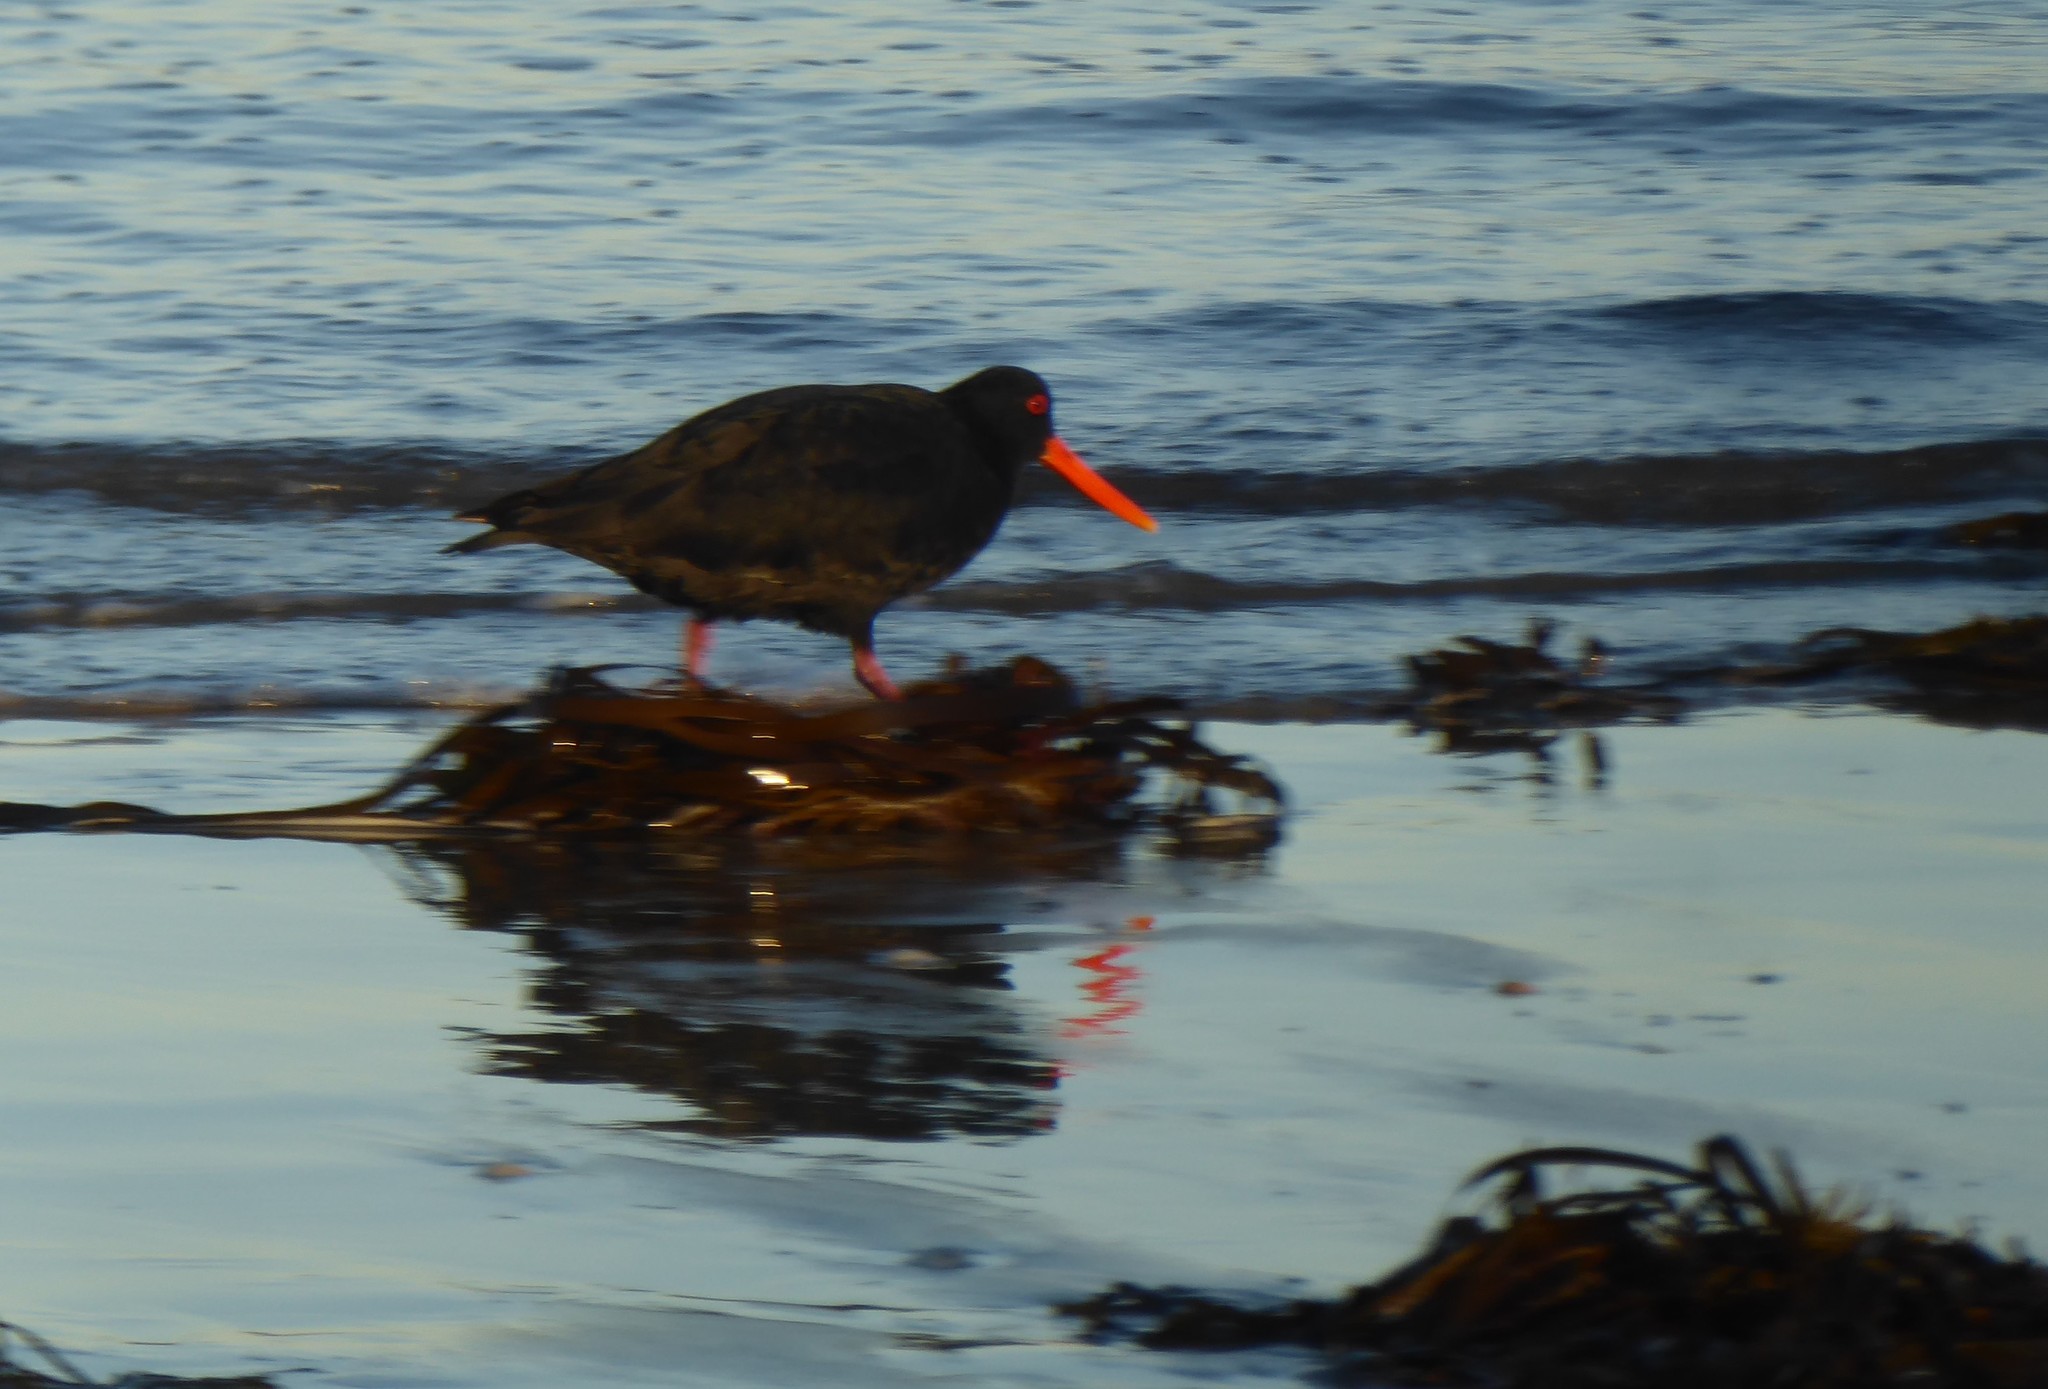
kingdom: Animalia
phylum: Chordata
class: Aves
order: Charadriiformes
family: Haematopodidae
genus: Haematopus
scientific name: Haematopus unicolor
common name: Variable oystercatcher
